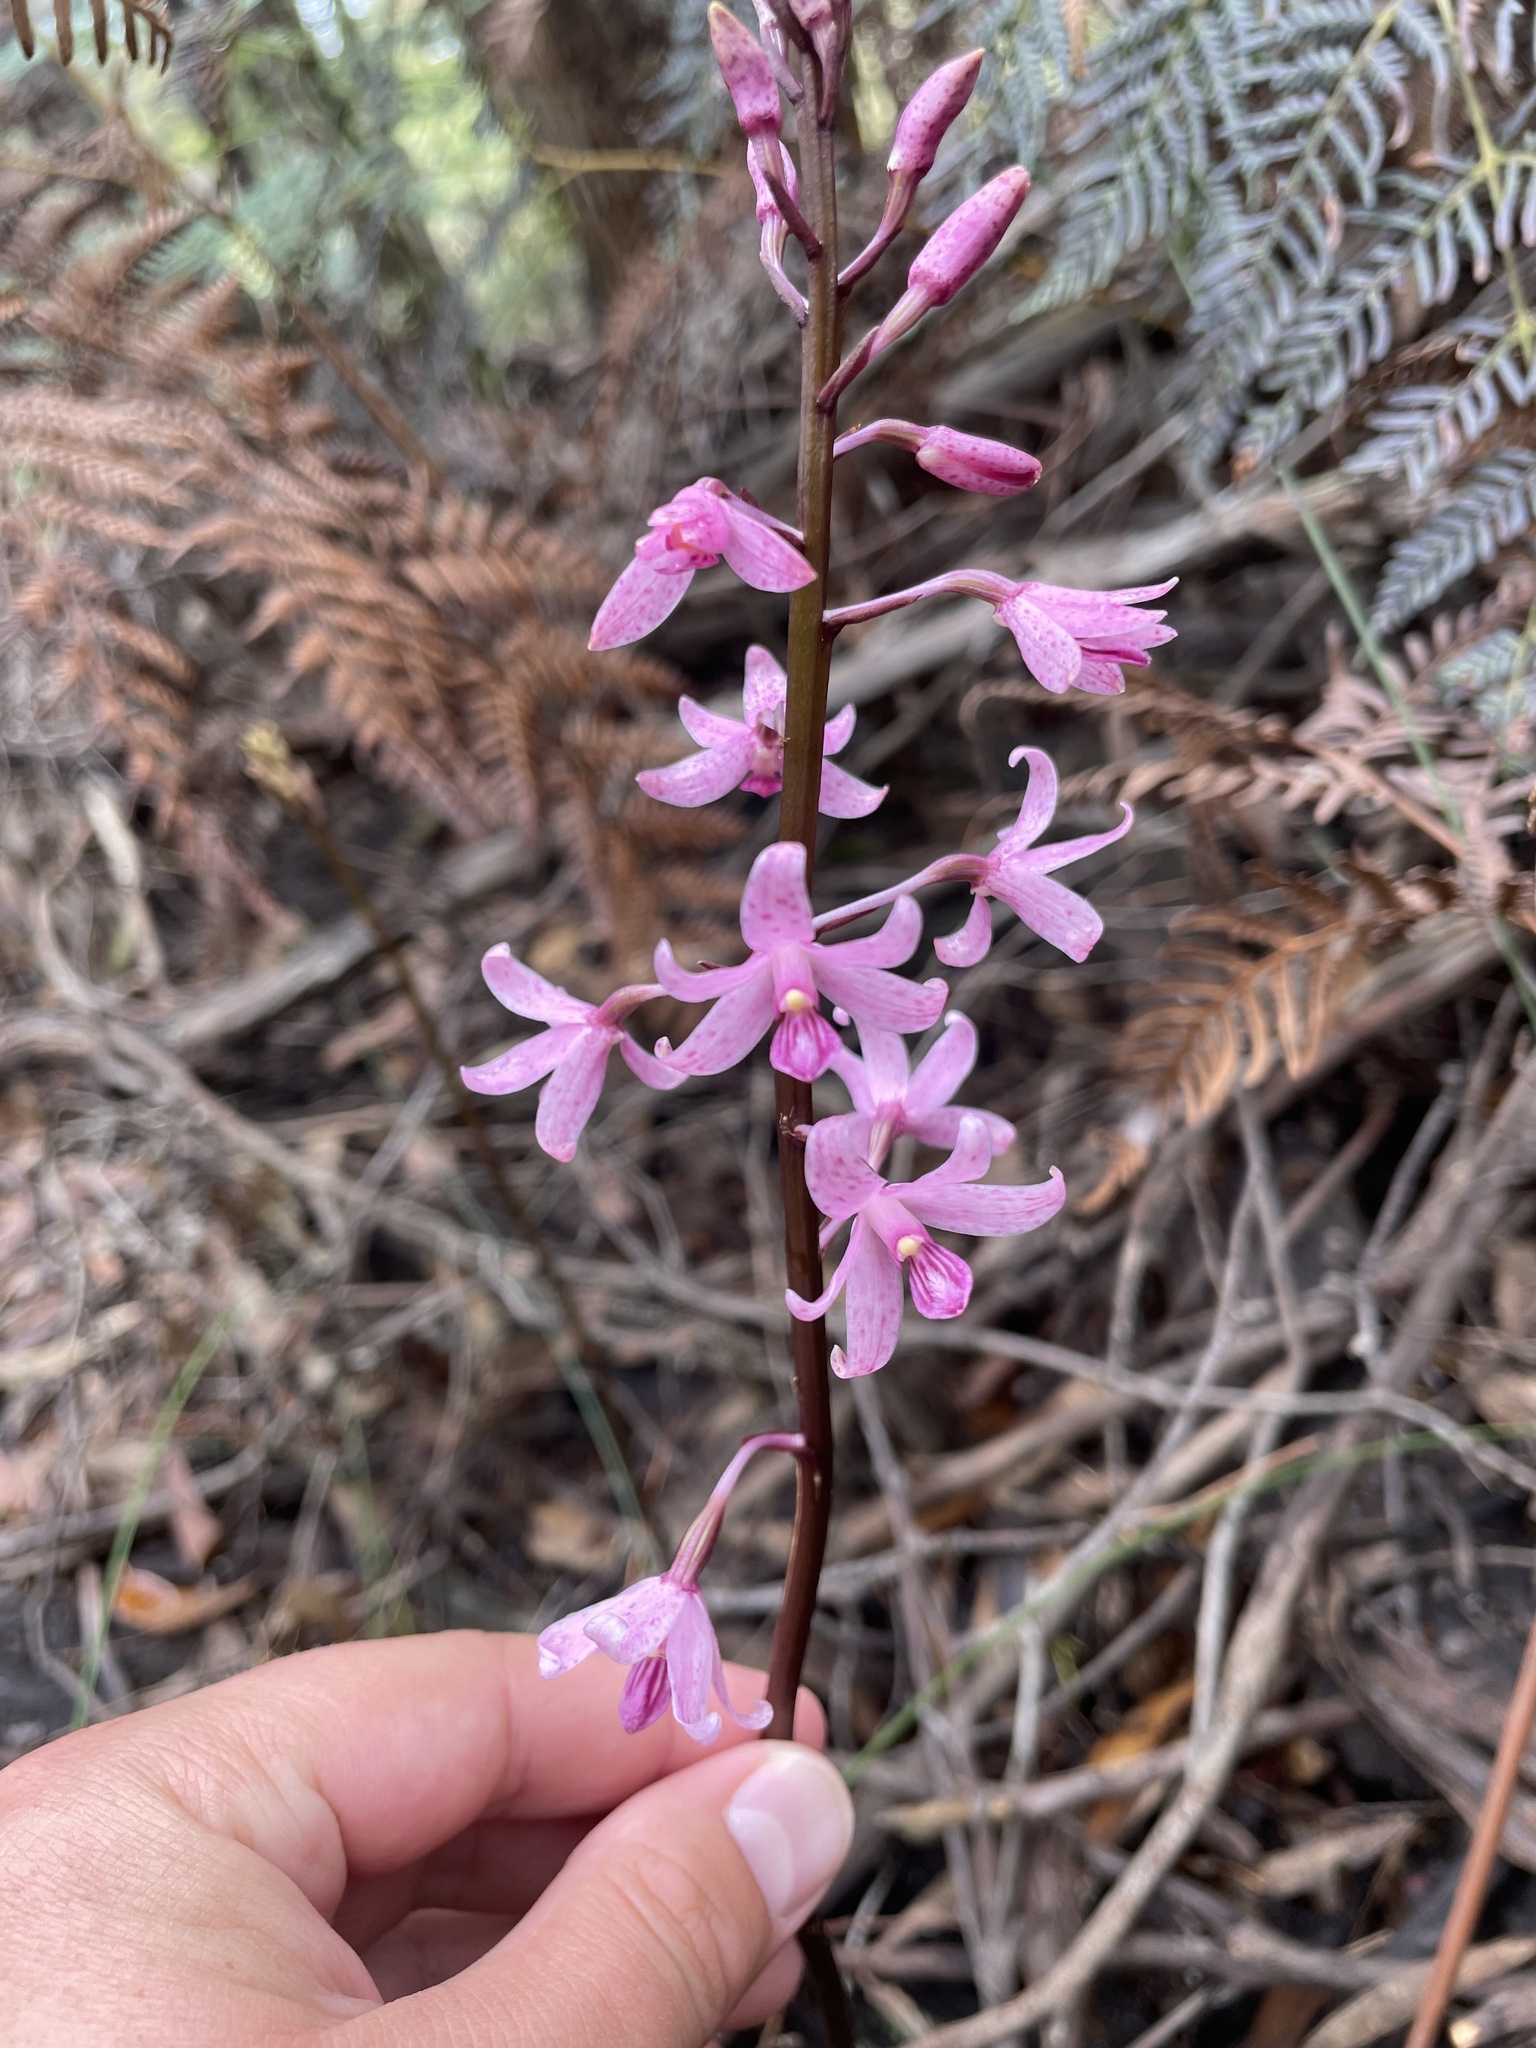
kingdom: Plantae
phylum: Tracheophyta
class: Liliopsida
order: Asparagales
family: Orchidaceae
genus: Dipodium
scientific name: Dipodium roseum
